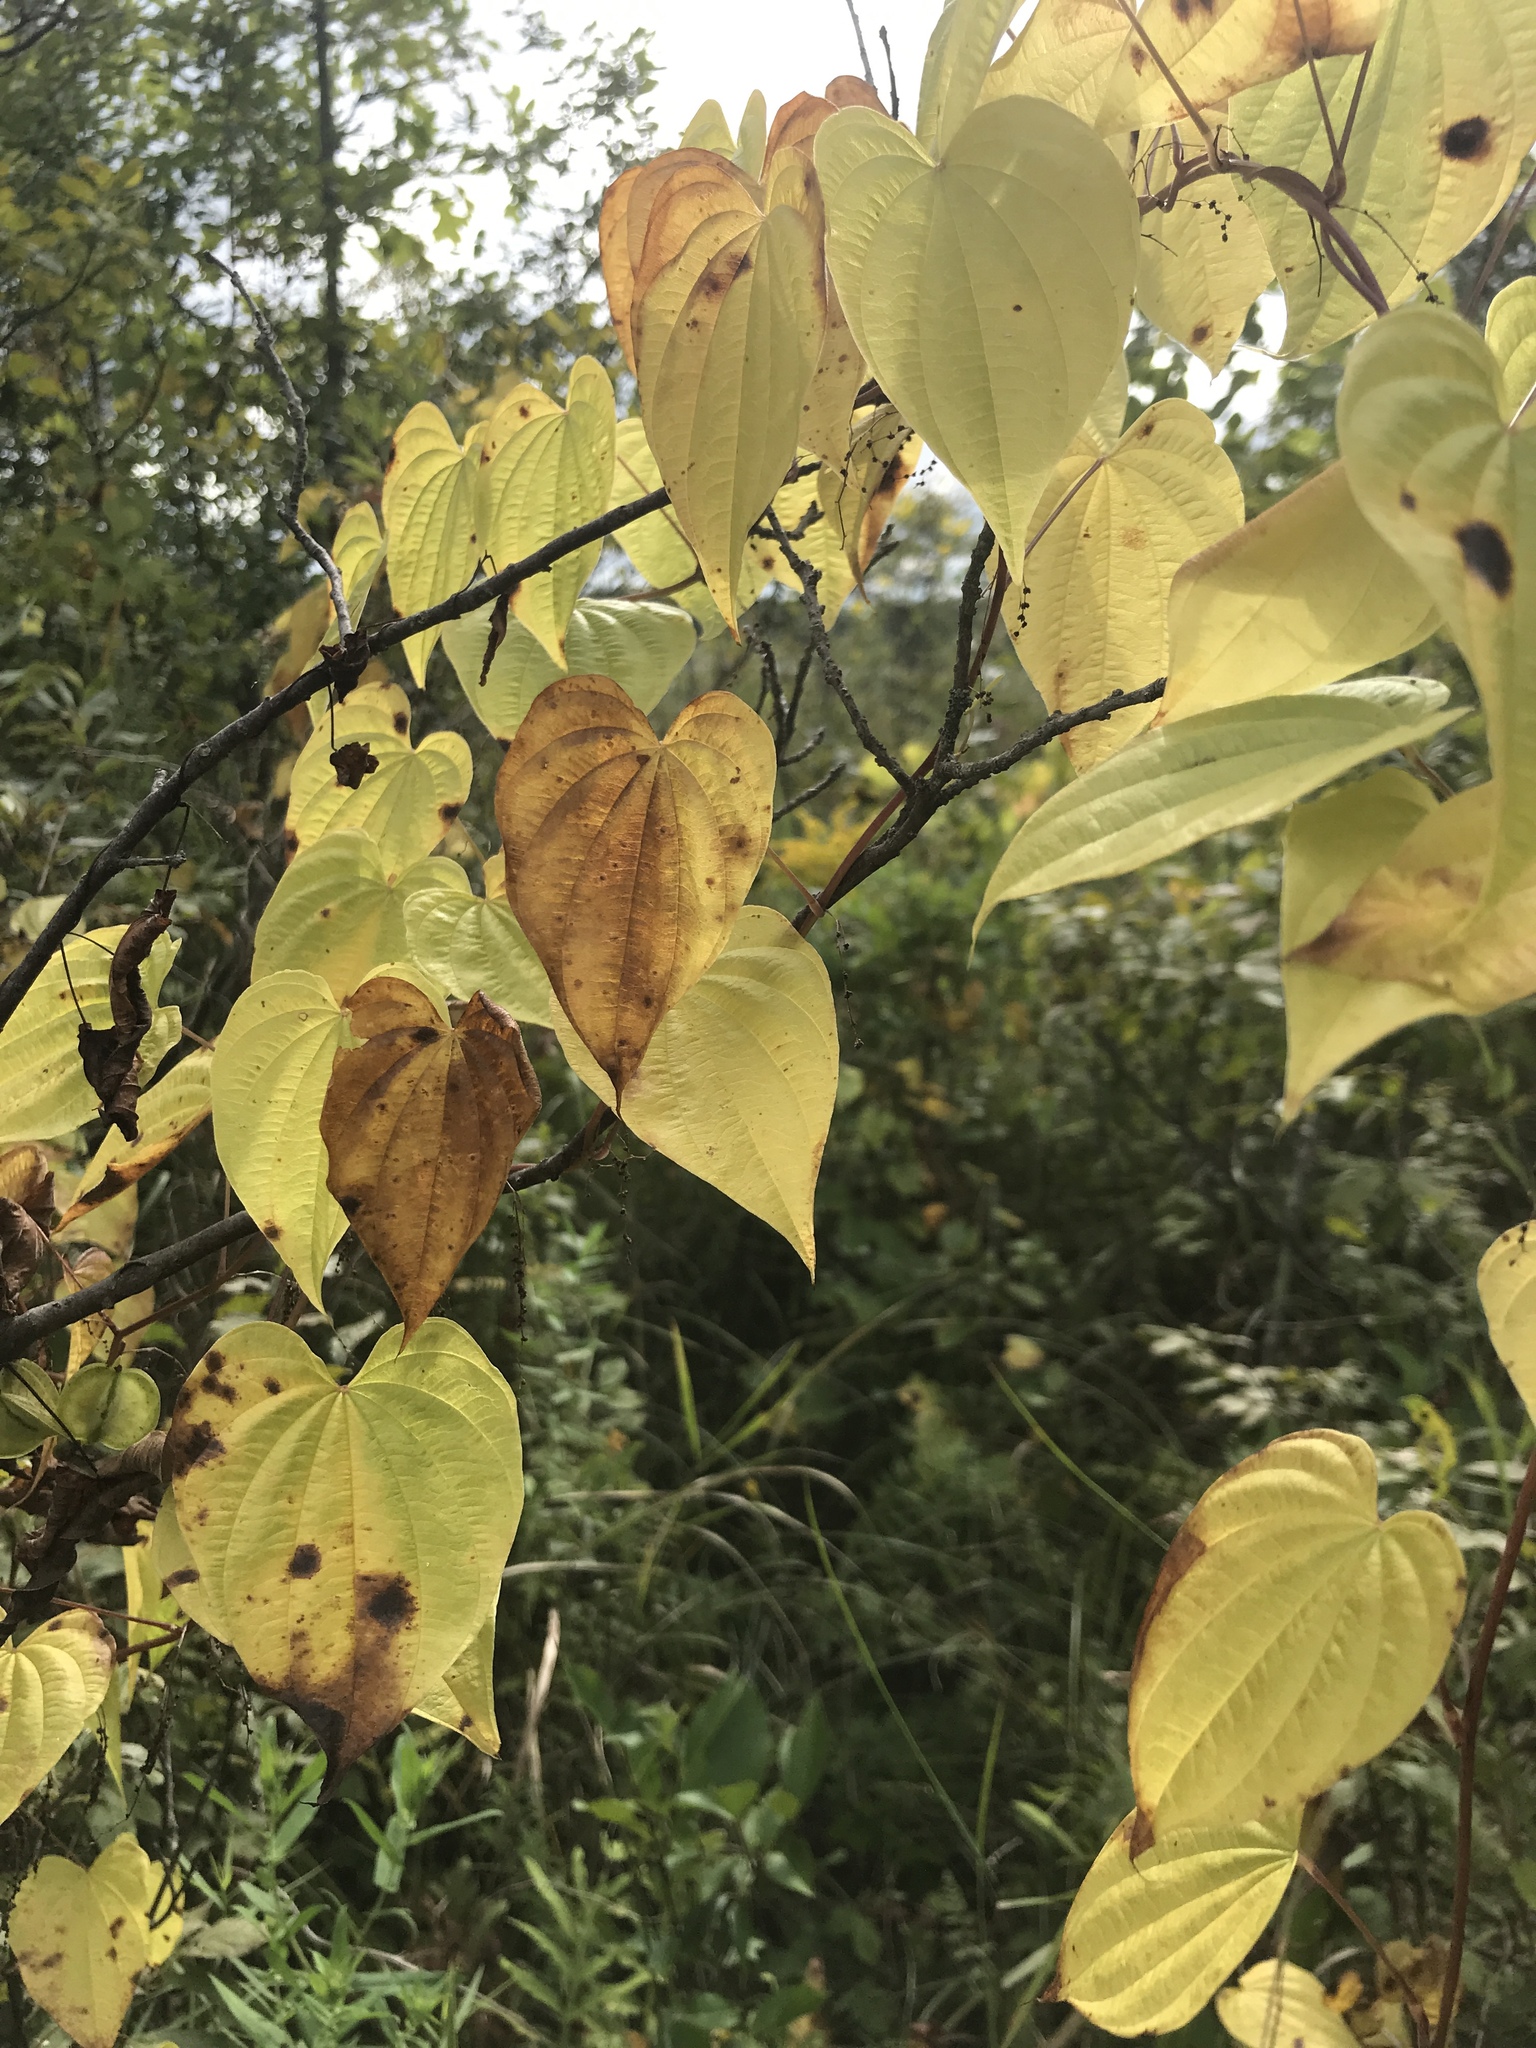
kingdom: Plantae
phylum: Tracheophyta
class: Liliopsida
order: Dioscoreales
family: Dioscoreaceae
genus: Dioscorea
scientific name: Dioscorea villosa
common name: Wild yam
